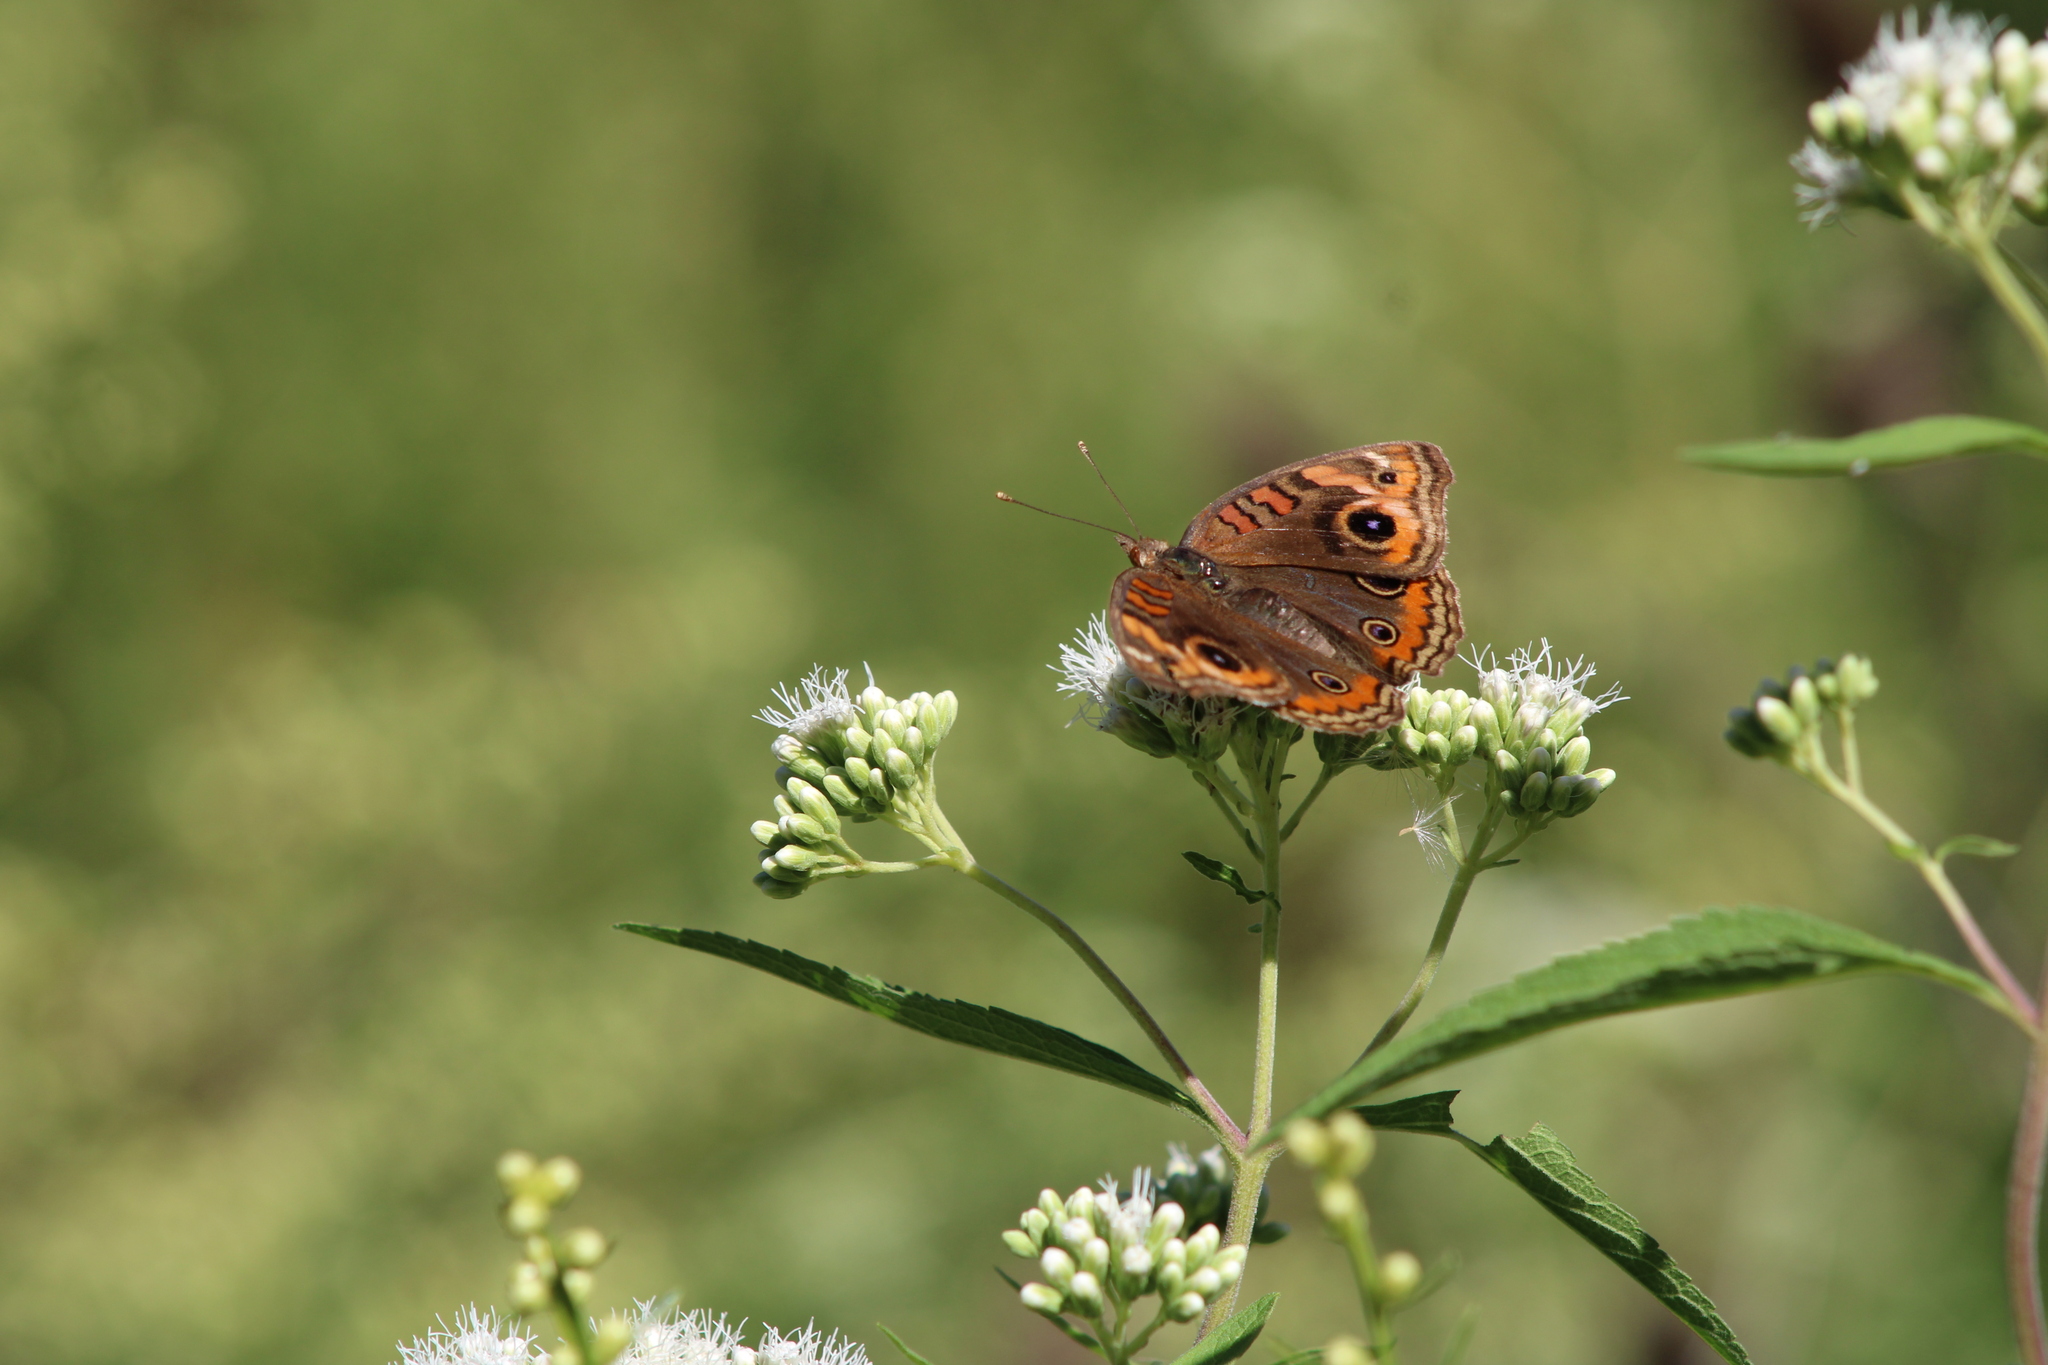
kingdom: Animalia
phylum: Arthropoda
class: Insecta
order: Lepidoptera
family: Nymphalidae
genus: Junonia
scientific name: Junonia lavinia
